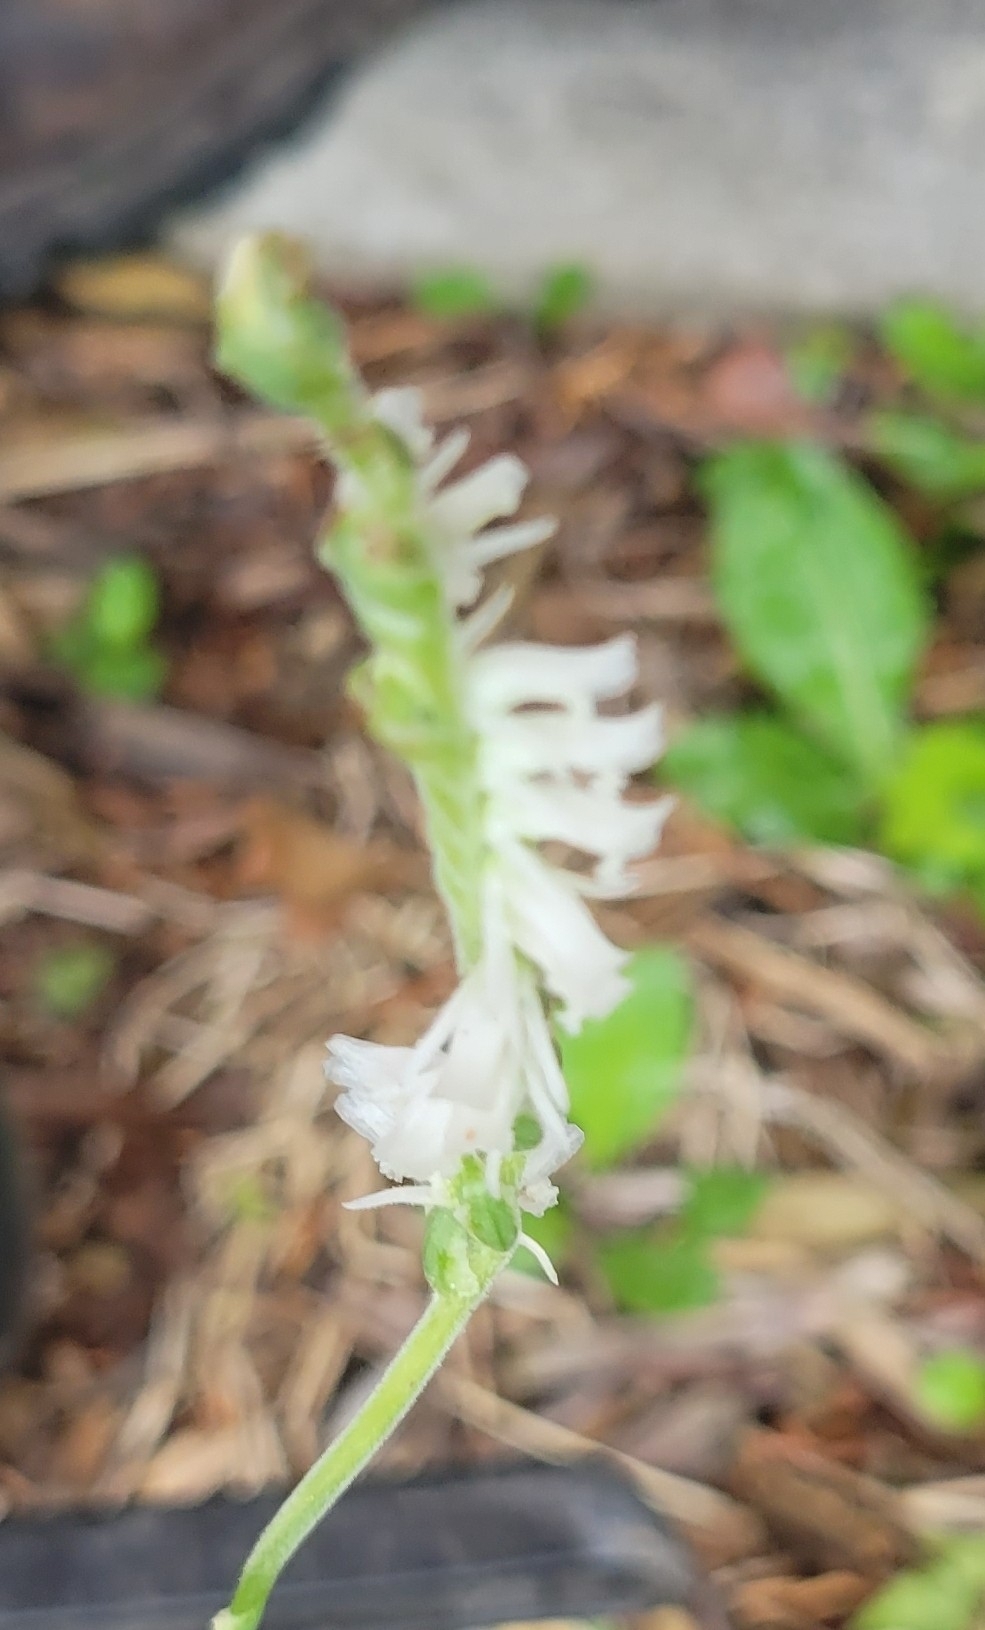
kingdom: Plantae
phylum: Tracheophyta
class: Liliopsida
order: Asparagales
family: Orchidaceae
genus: Spiranthes
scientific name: Spiranthes vernalis
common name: Spring ladies'-tresses
